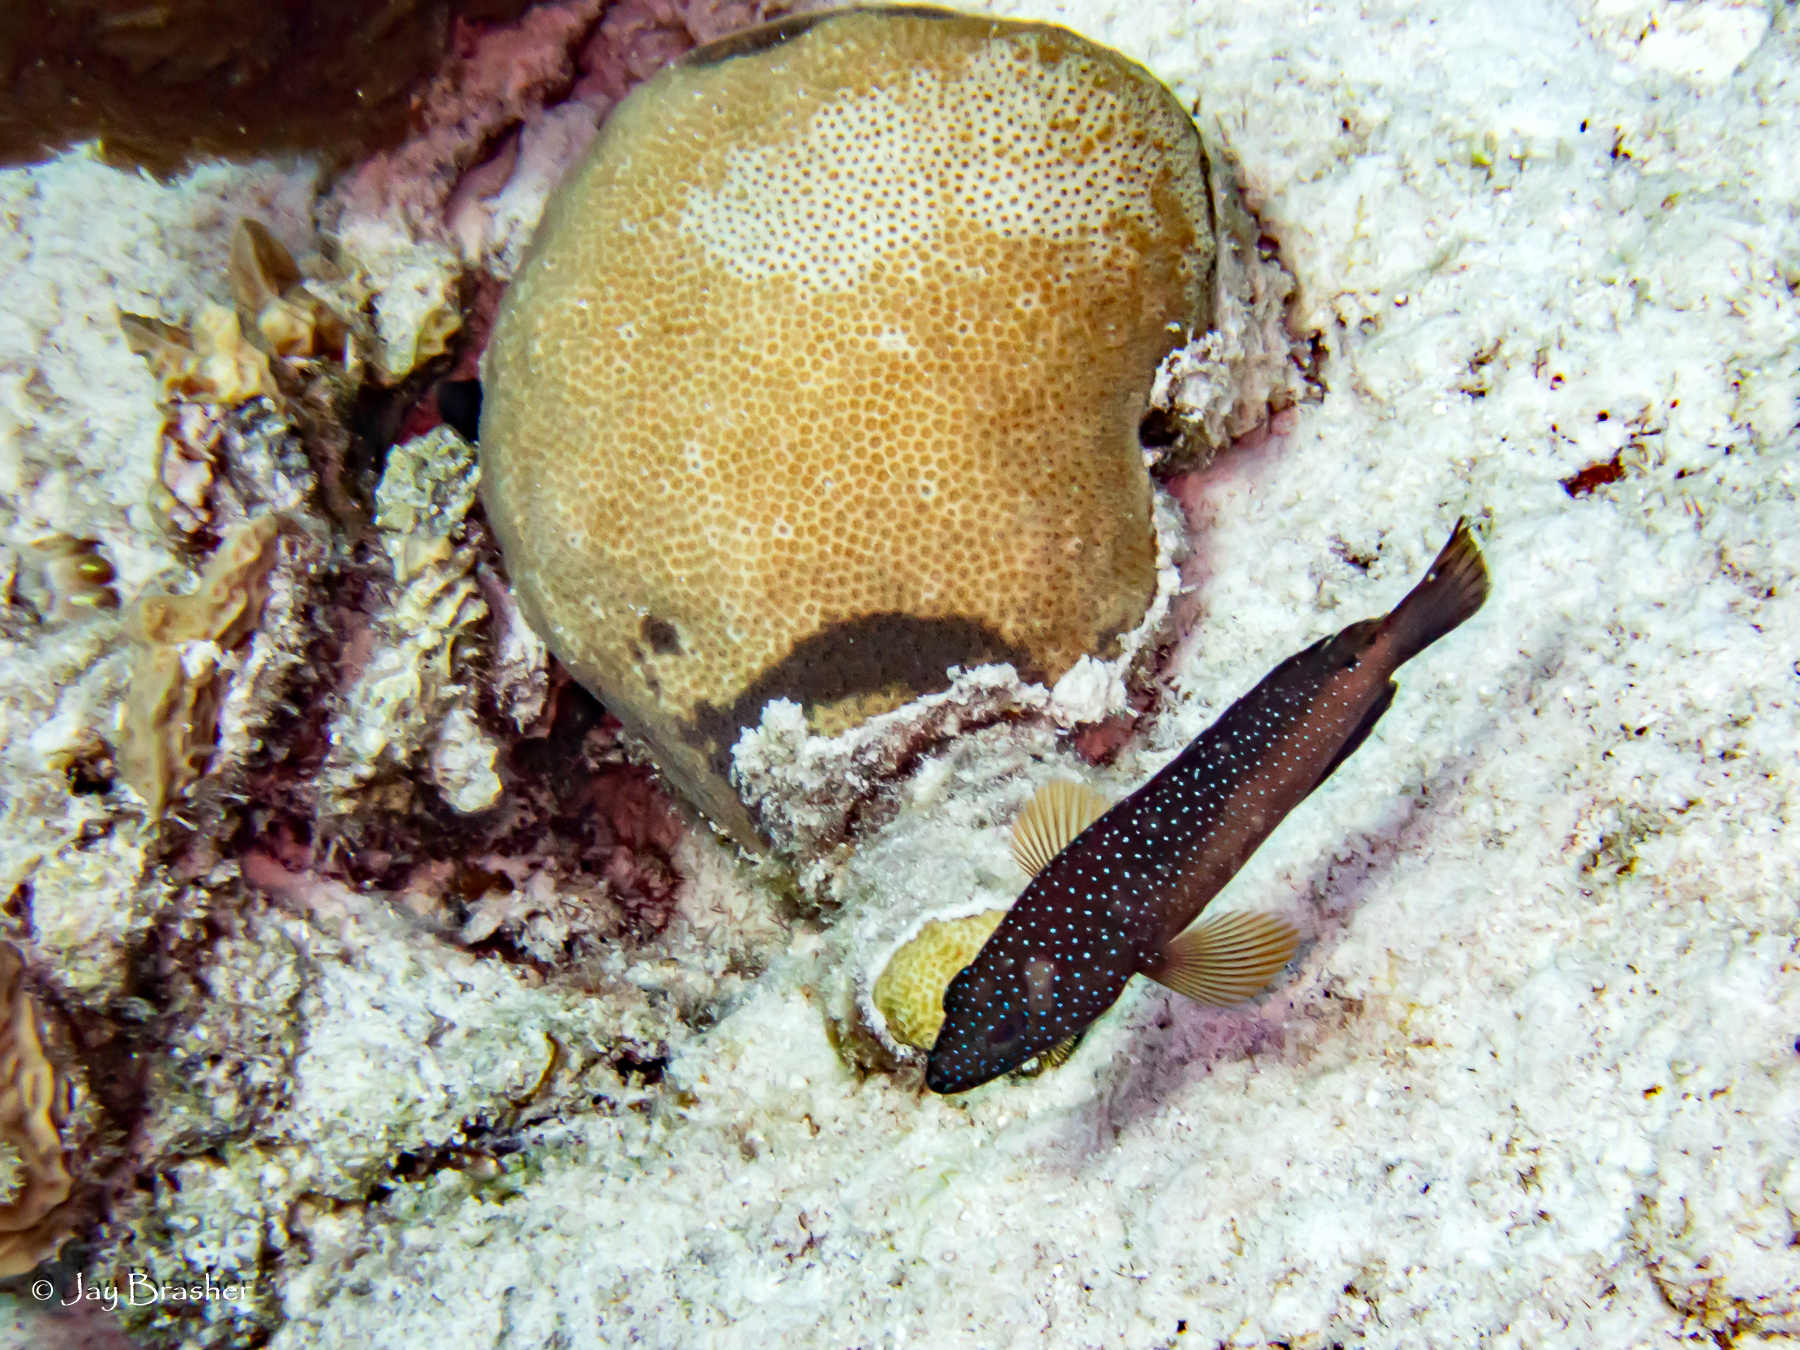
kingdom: Animalia
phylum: Chordata
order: Perciformes
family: Serranidae
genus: Cephalopholis
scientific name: Cephalopholis fulva
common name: Butterfish
